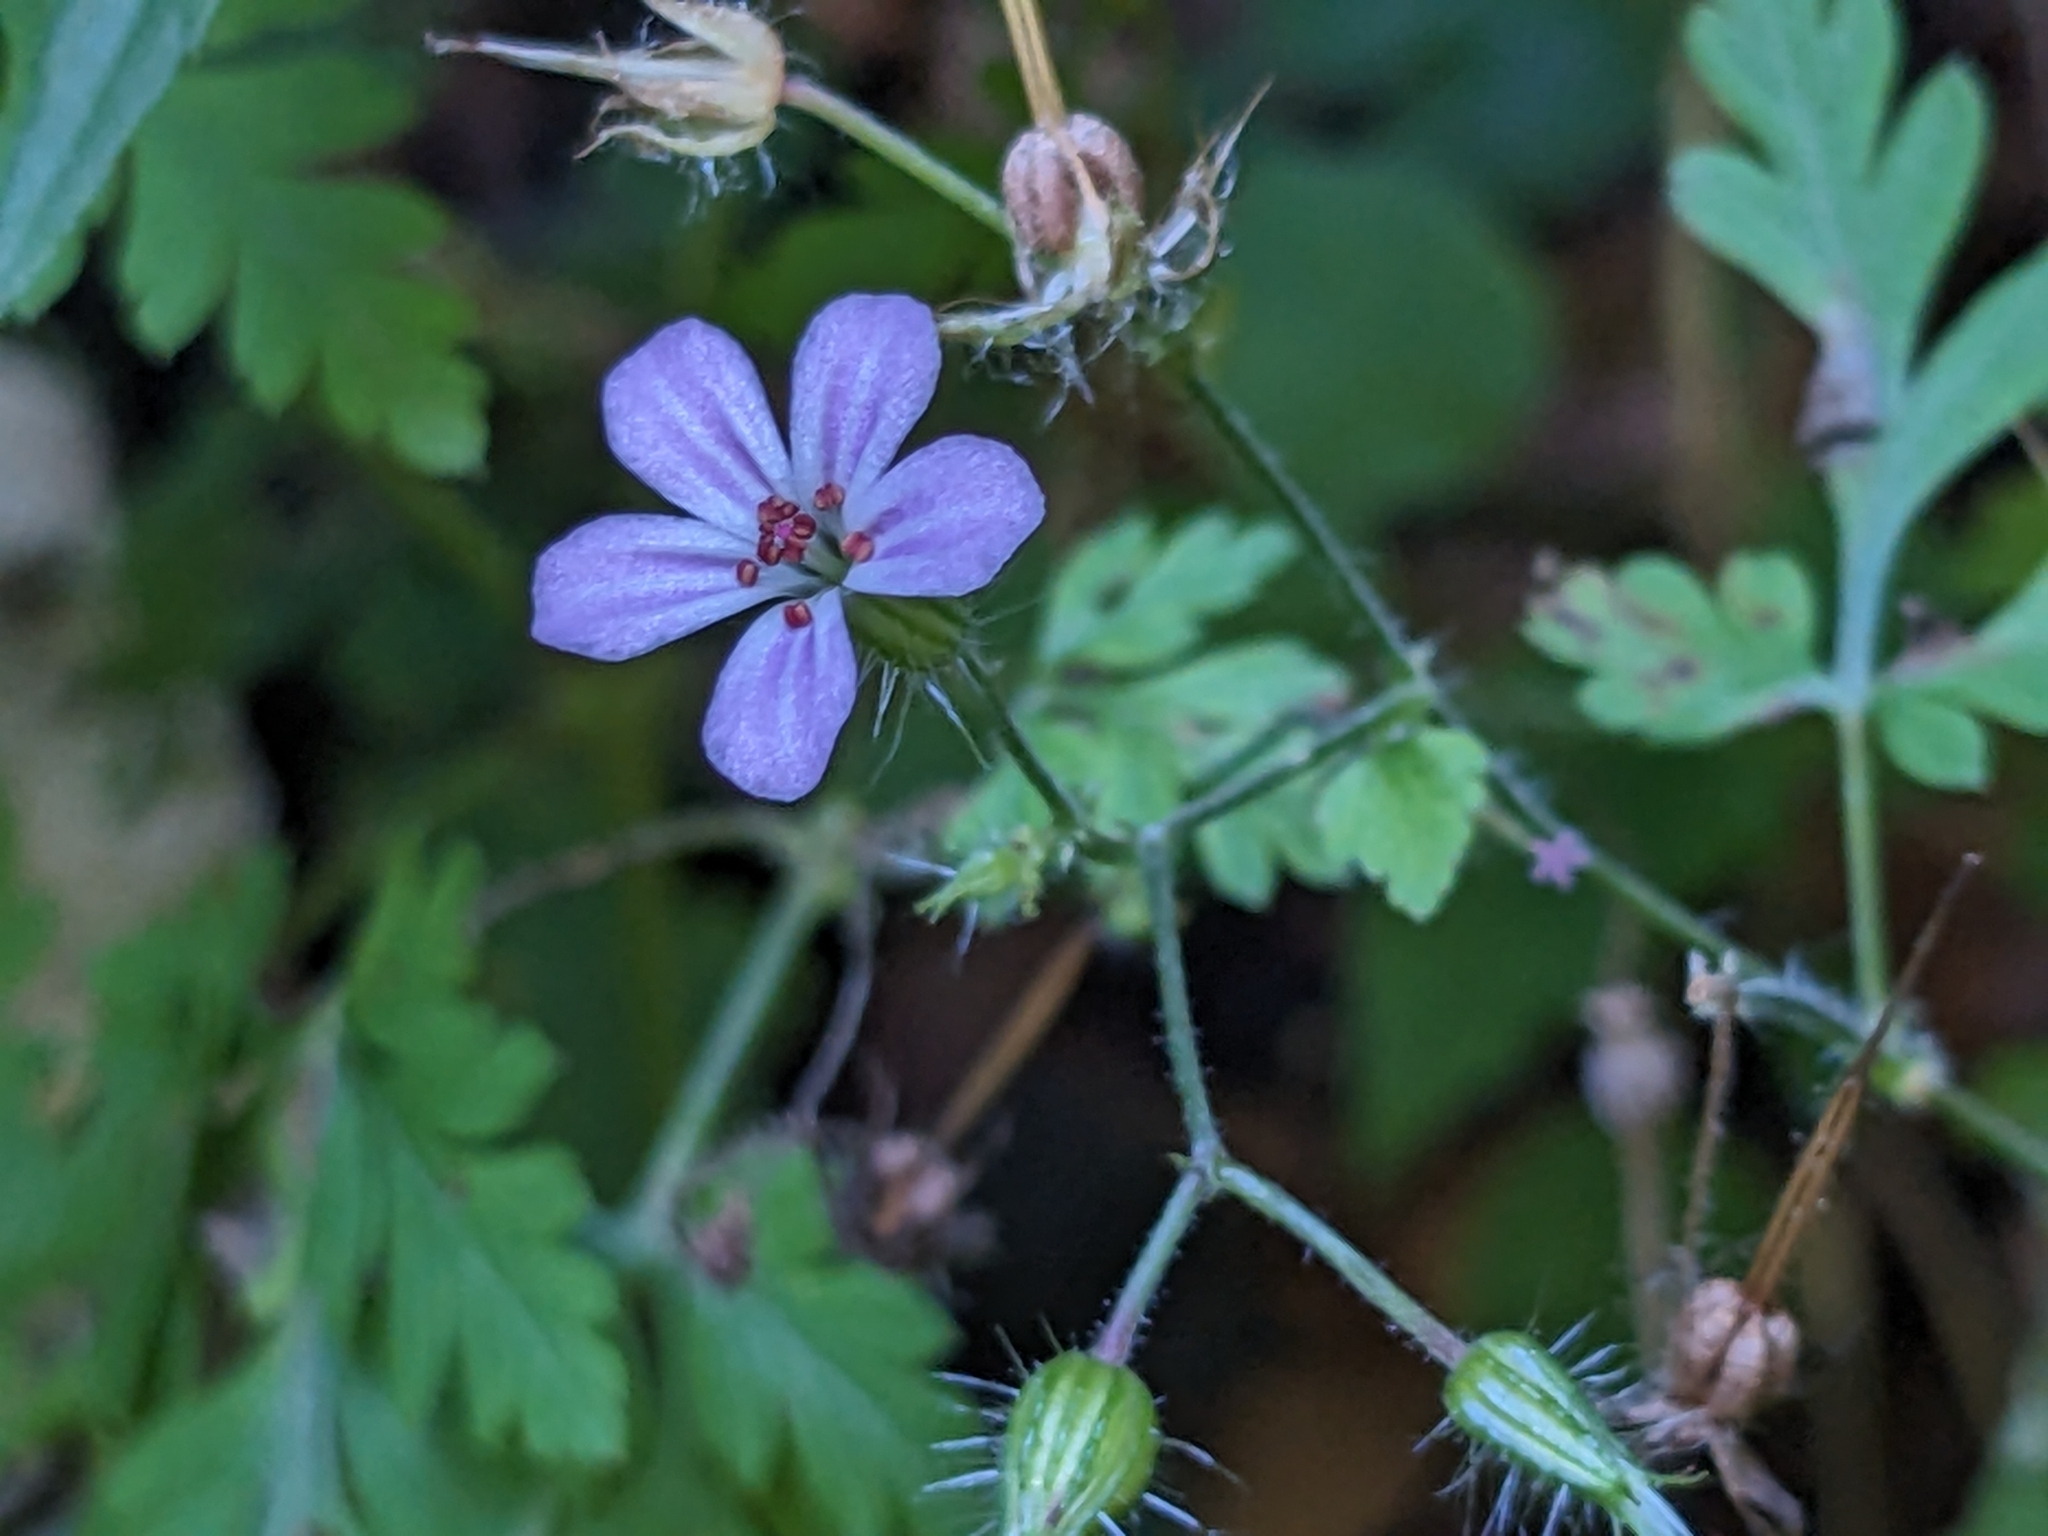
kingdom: Plantae
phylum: Tracheophyta
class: Magnoliopsida
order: Geraniales
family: Geraniaceae
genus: Geranium
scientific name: Geranium robertianum
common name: Herb-robert
